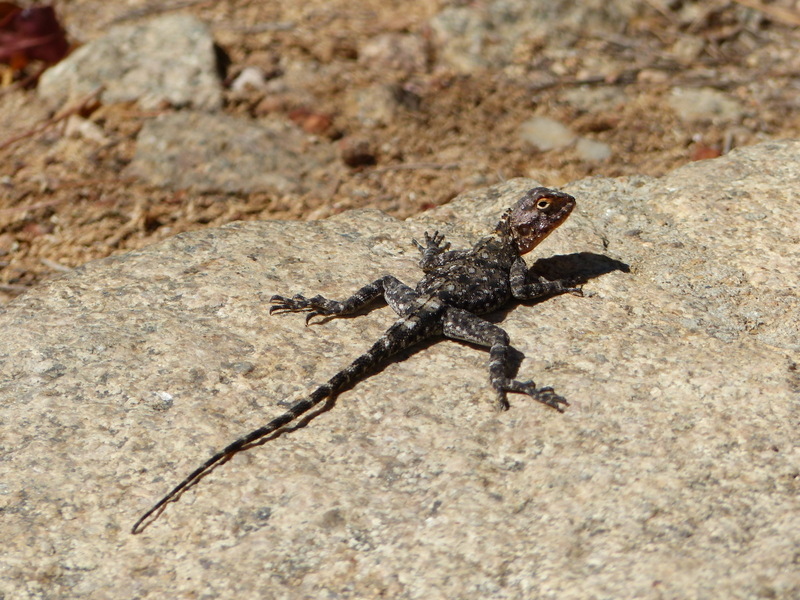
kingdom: Animalia
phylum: Chordata
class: Squamata
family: Agamidae
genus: Agama
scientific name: Agama kirkii
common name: Kirk's rock agama
